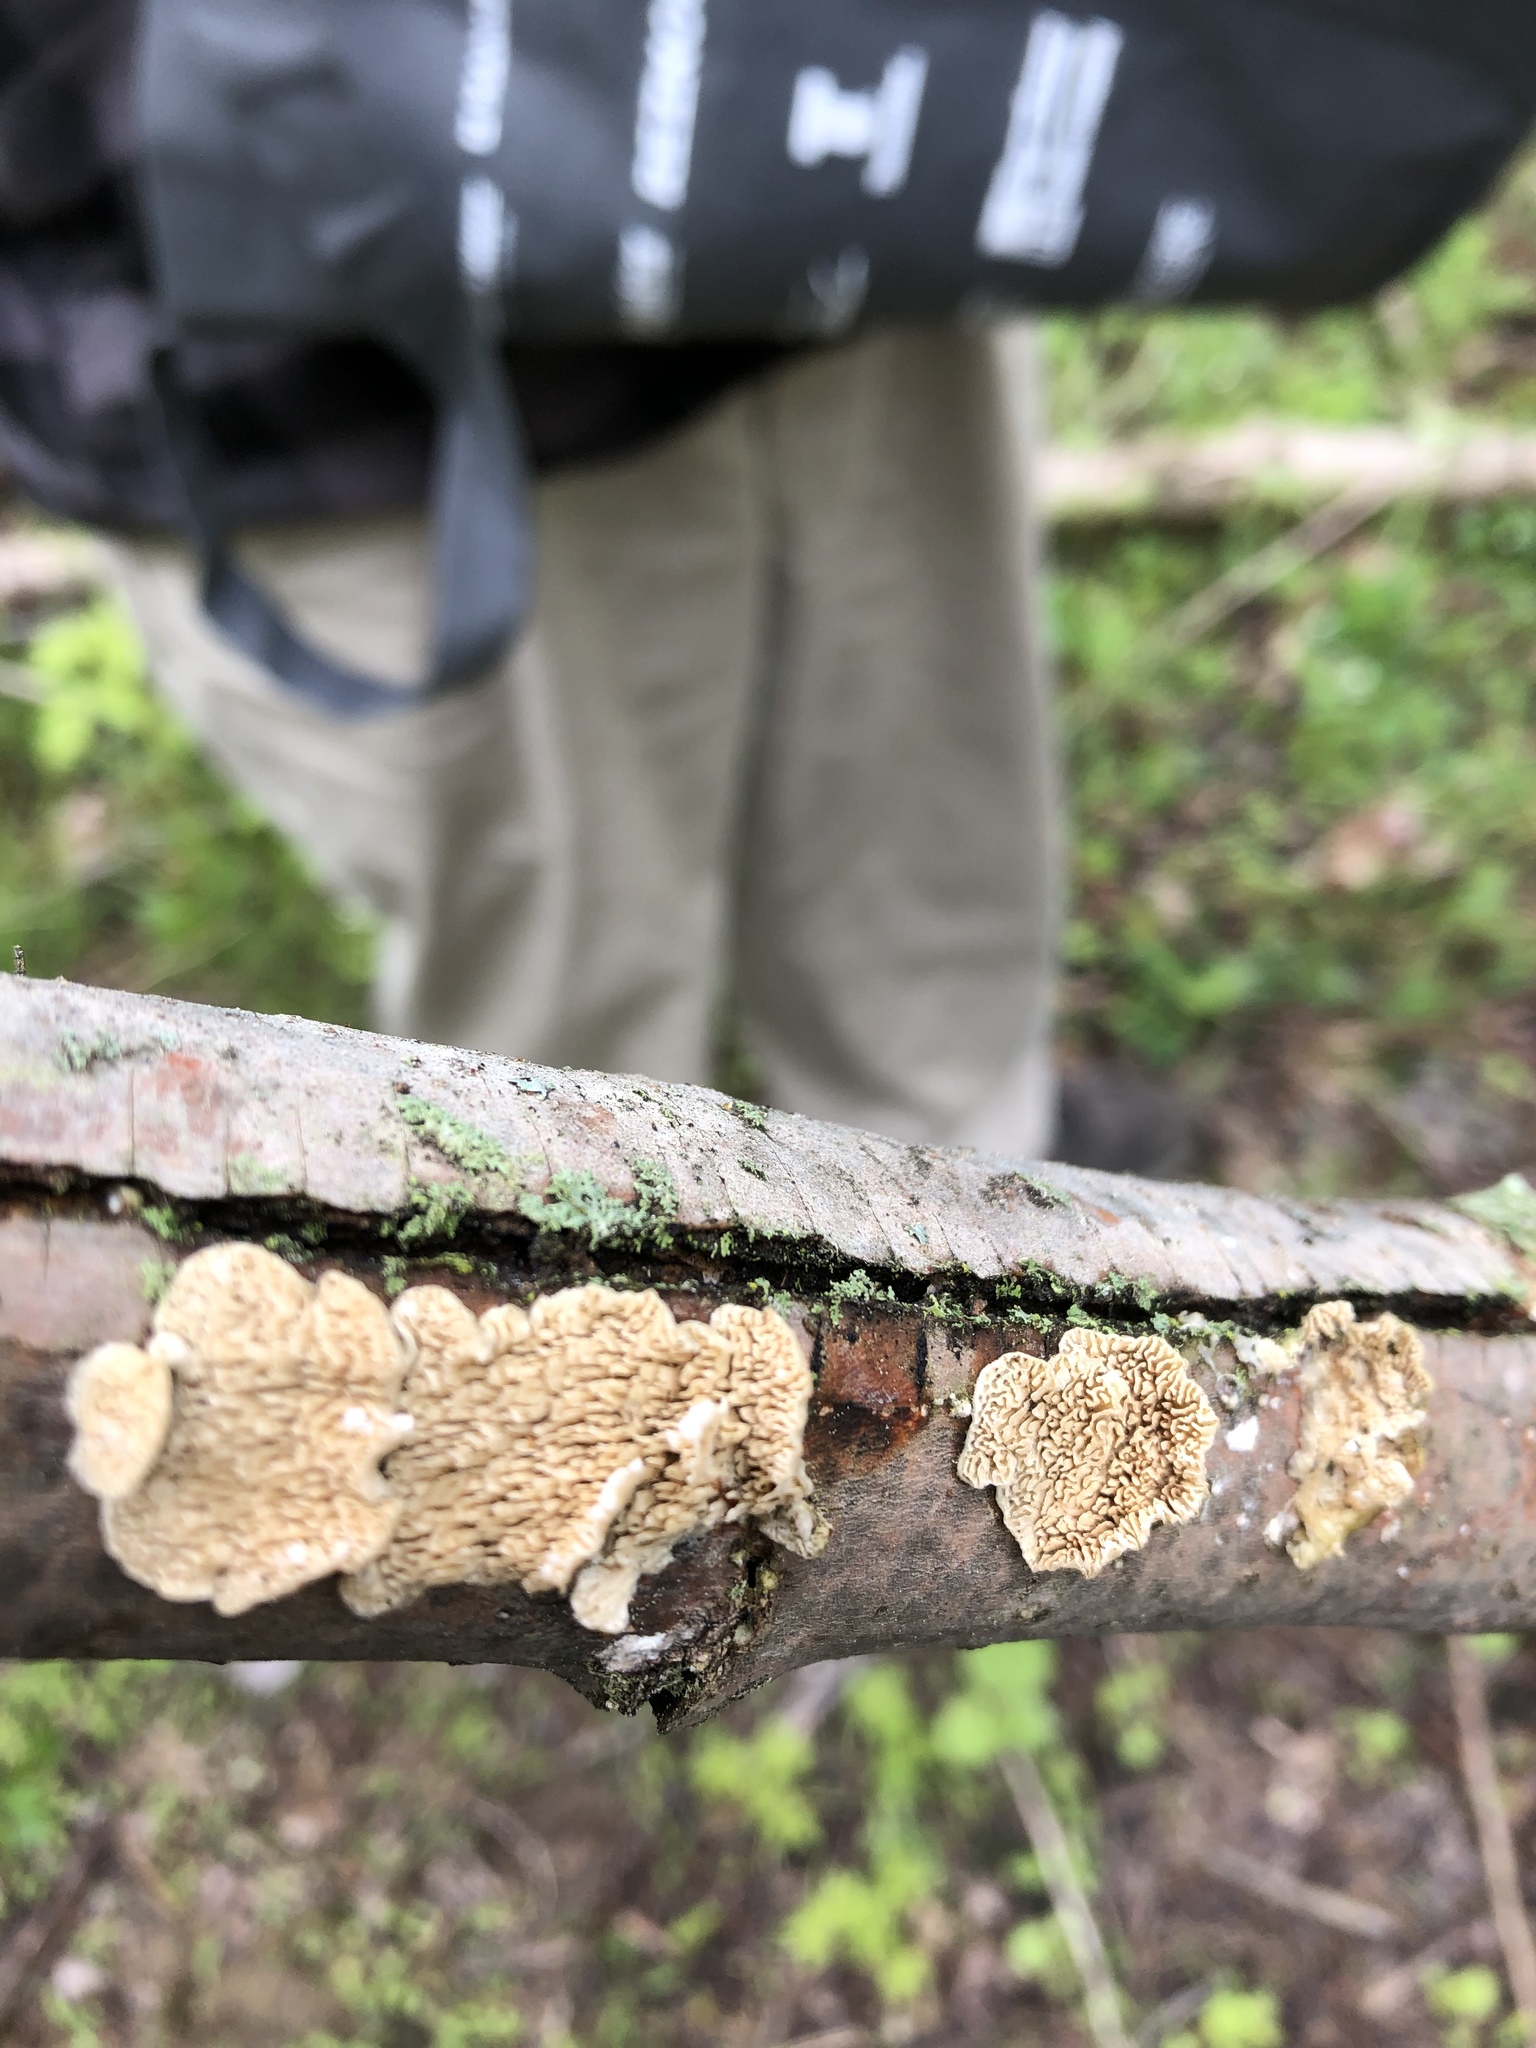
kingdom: Fungi
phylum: Basidiomycota
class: Agaricomycetes
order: Polyporales
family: Irpicaceae
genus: Irpex
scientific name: Irpex lacteus
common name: Milk-white toothed polypore
